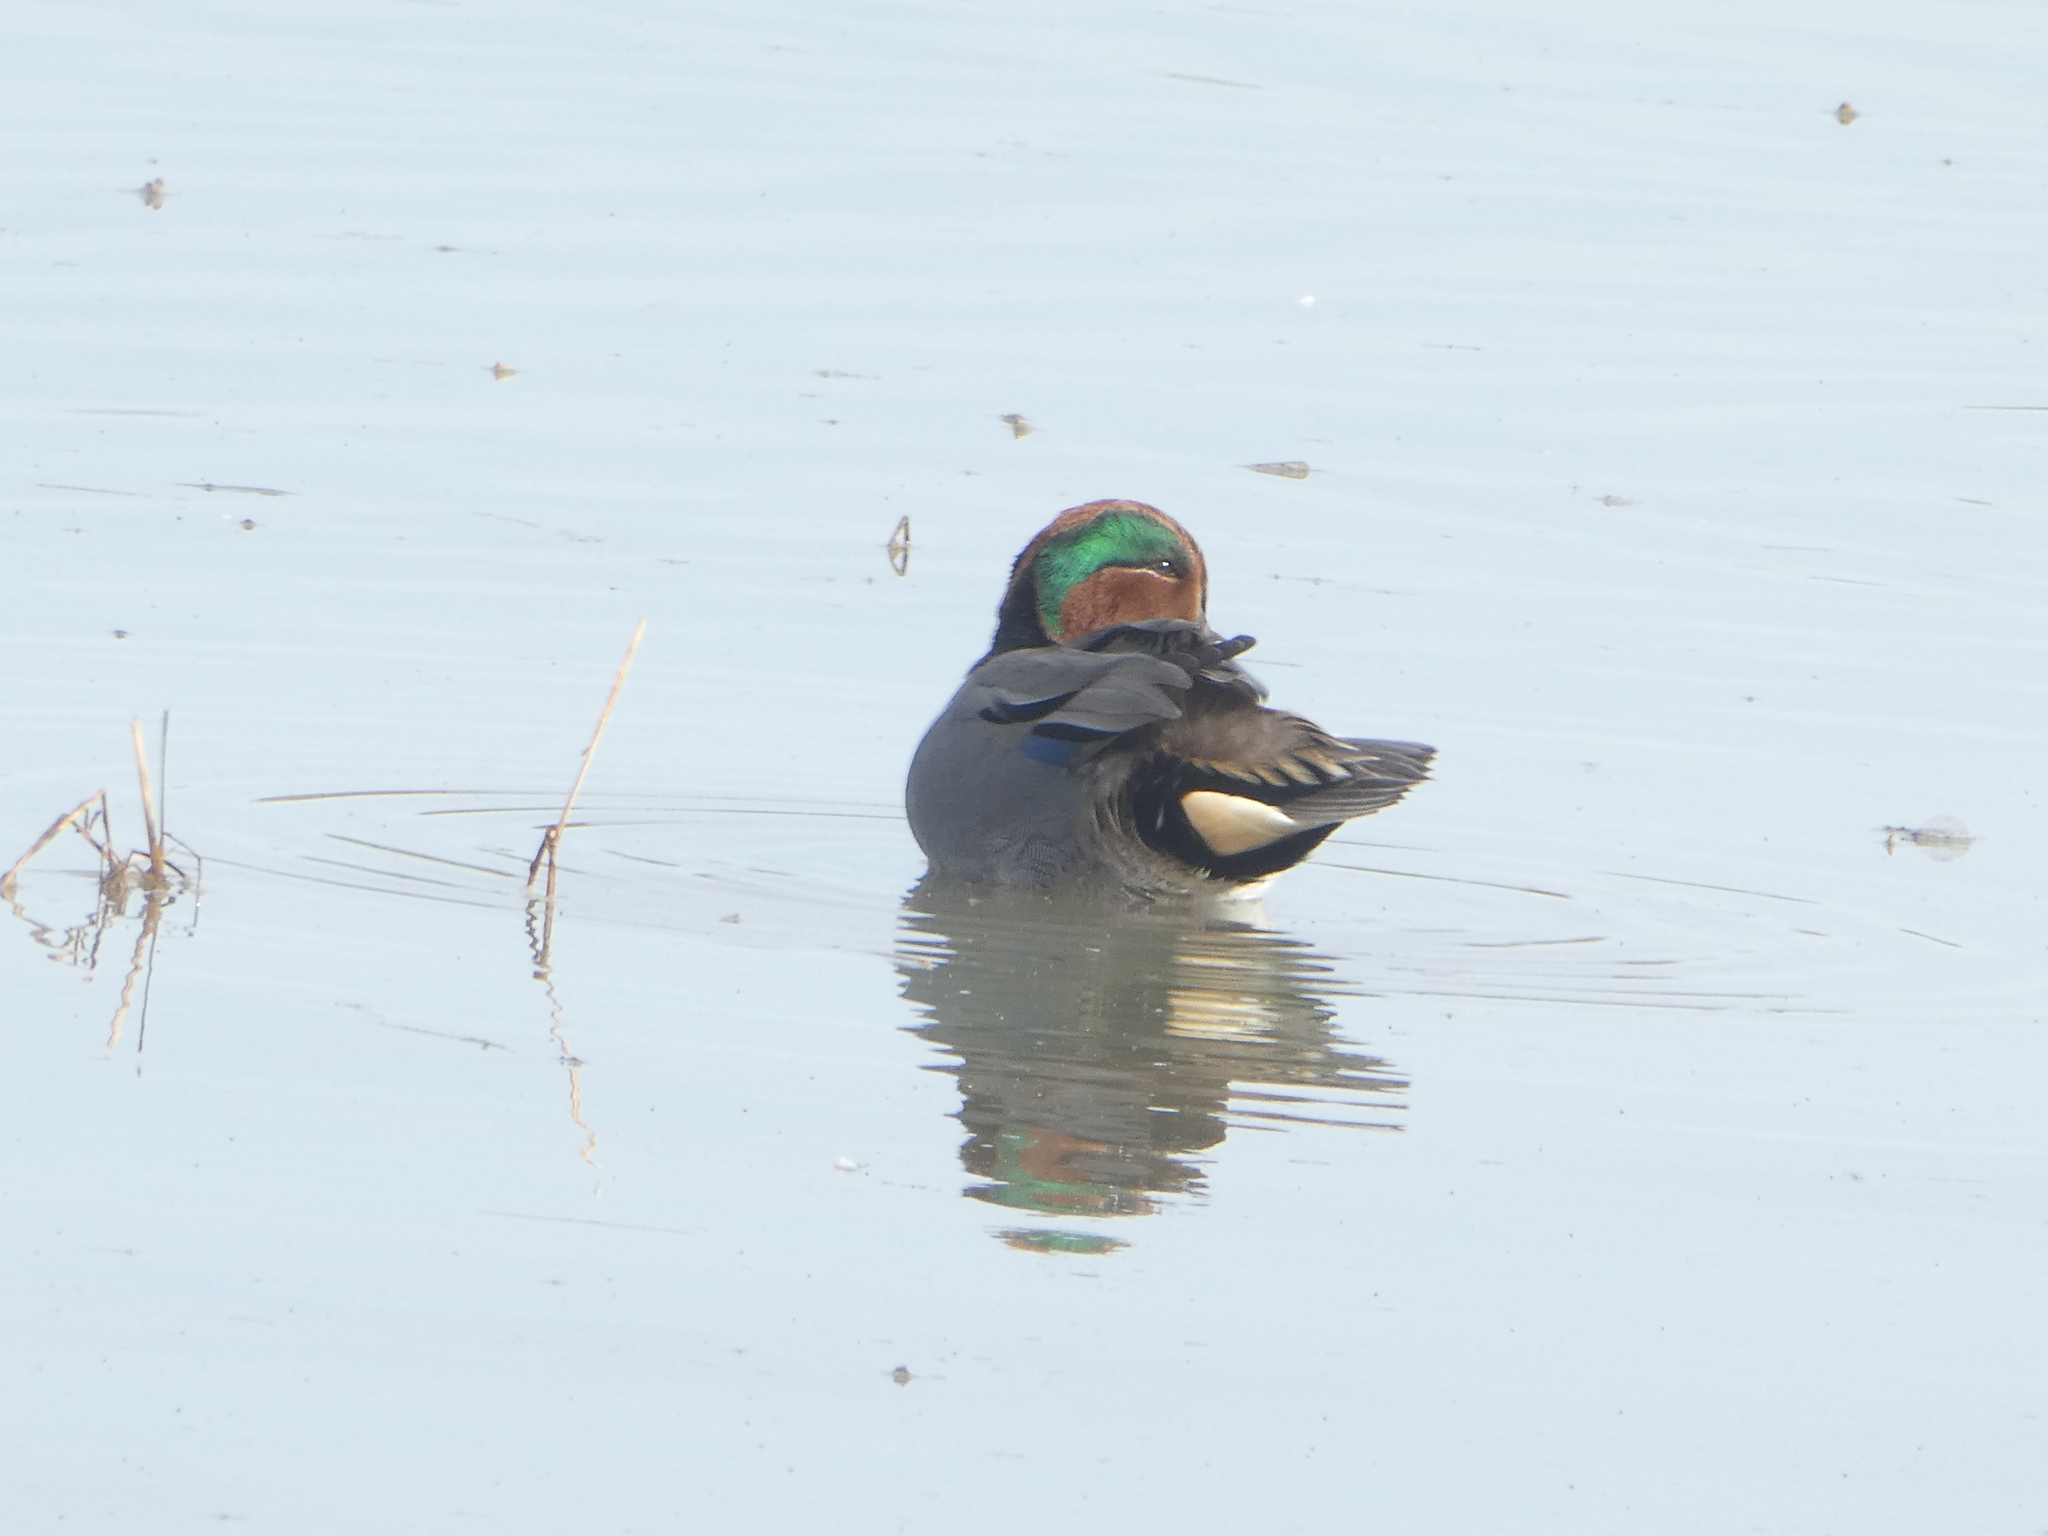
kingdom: Animalia
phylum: Chordata
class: Aves
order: Anseriformes
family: Anatidae
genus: Anas
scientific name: Anas crecca
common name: Eurasian teal
